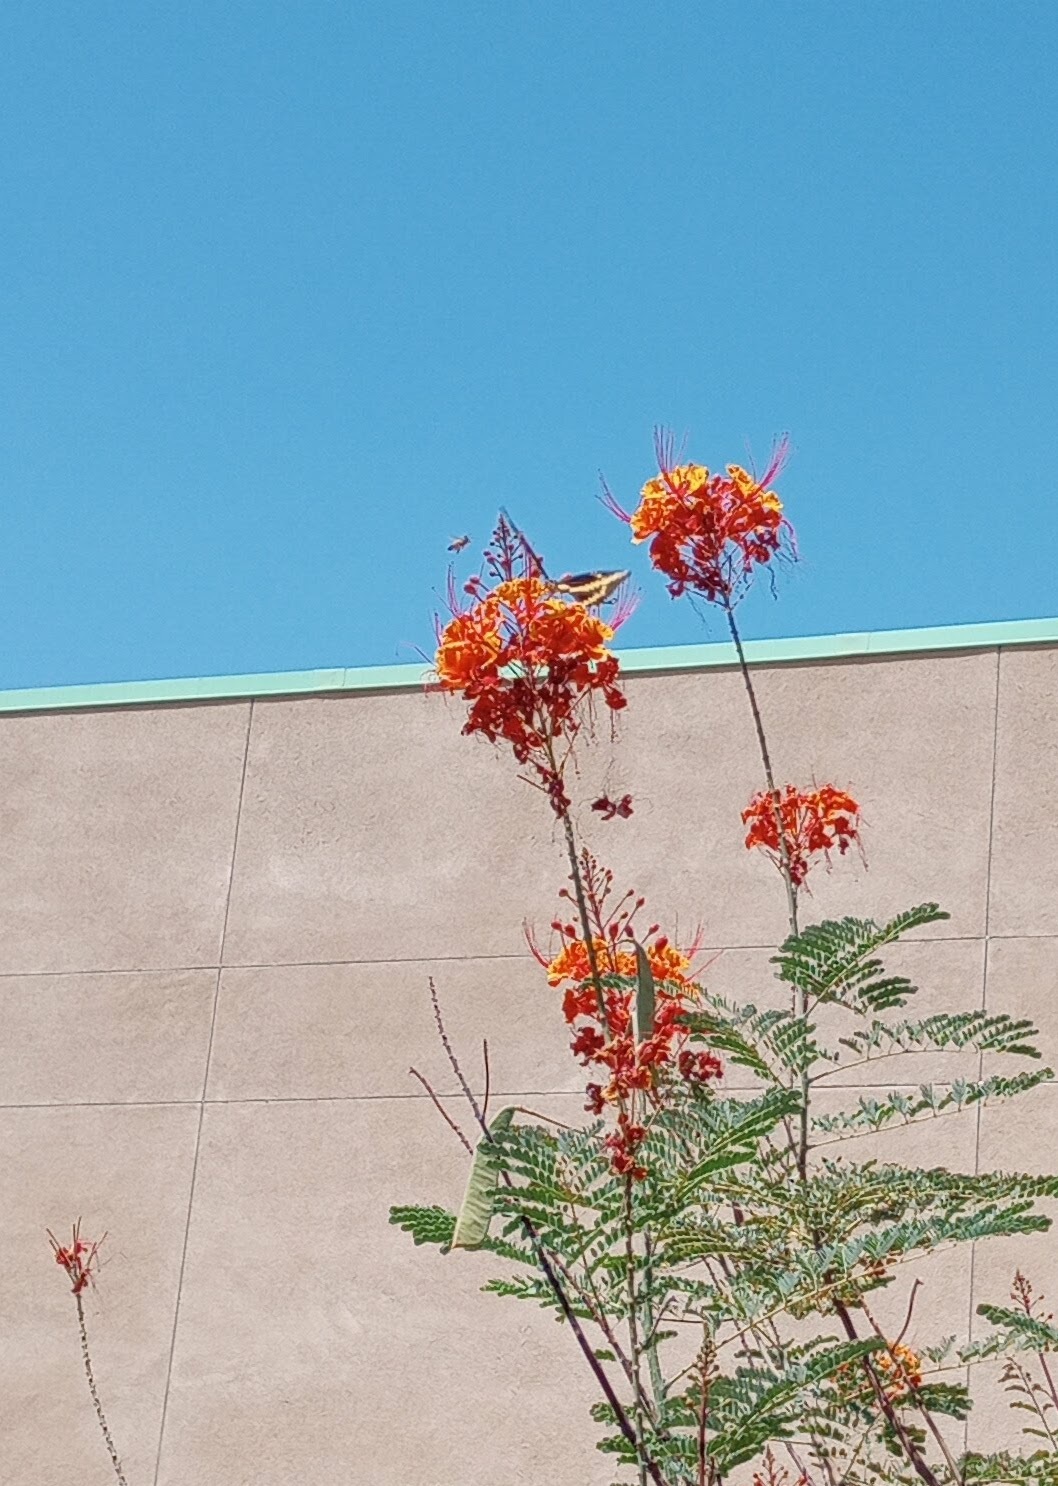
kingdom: Animalia
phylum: Arthropoda
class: Insecta
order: Lepidoptera
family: Papilionidae
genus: Papilio
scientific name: Papilio rumiko
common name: Western giant swallowtail
